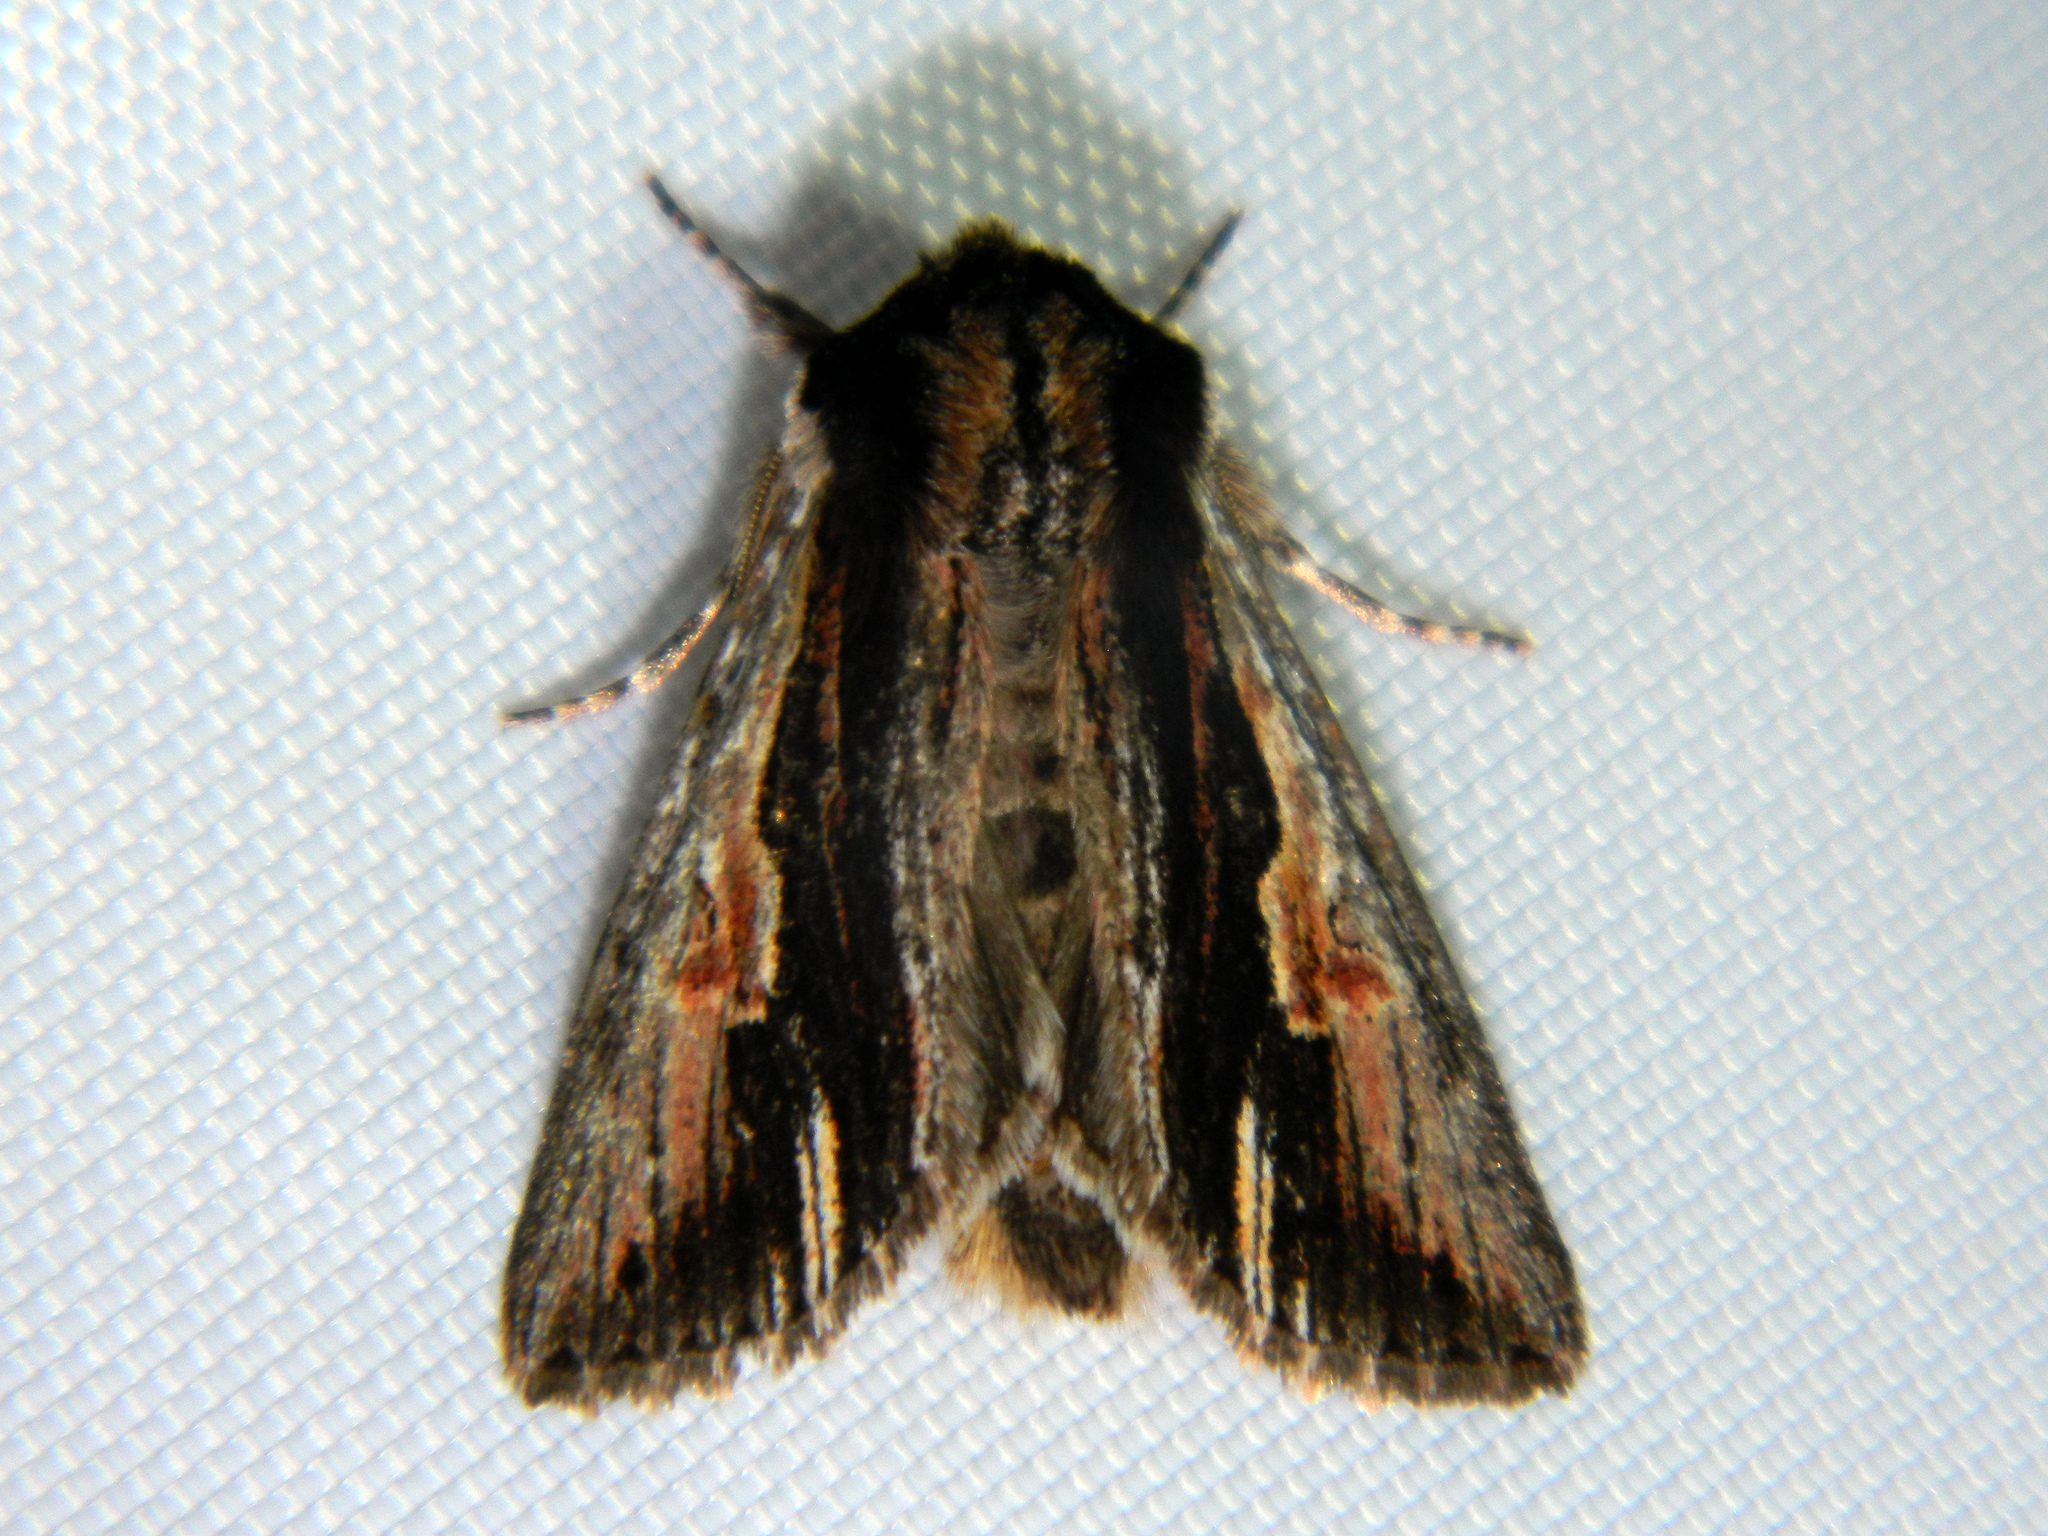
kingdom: Animalia
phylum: Arthropoda
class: Insecta
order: Lepidoptera
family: Noctuidae
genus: Achatia
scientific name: Achatia evicta
